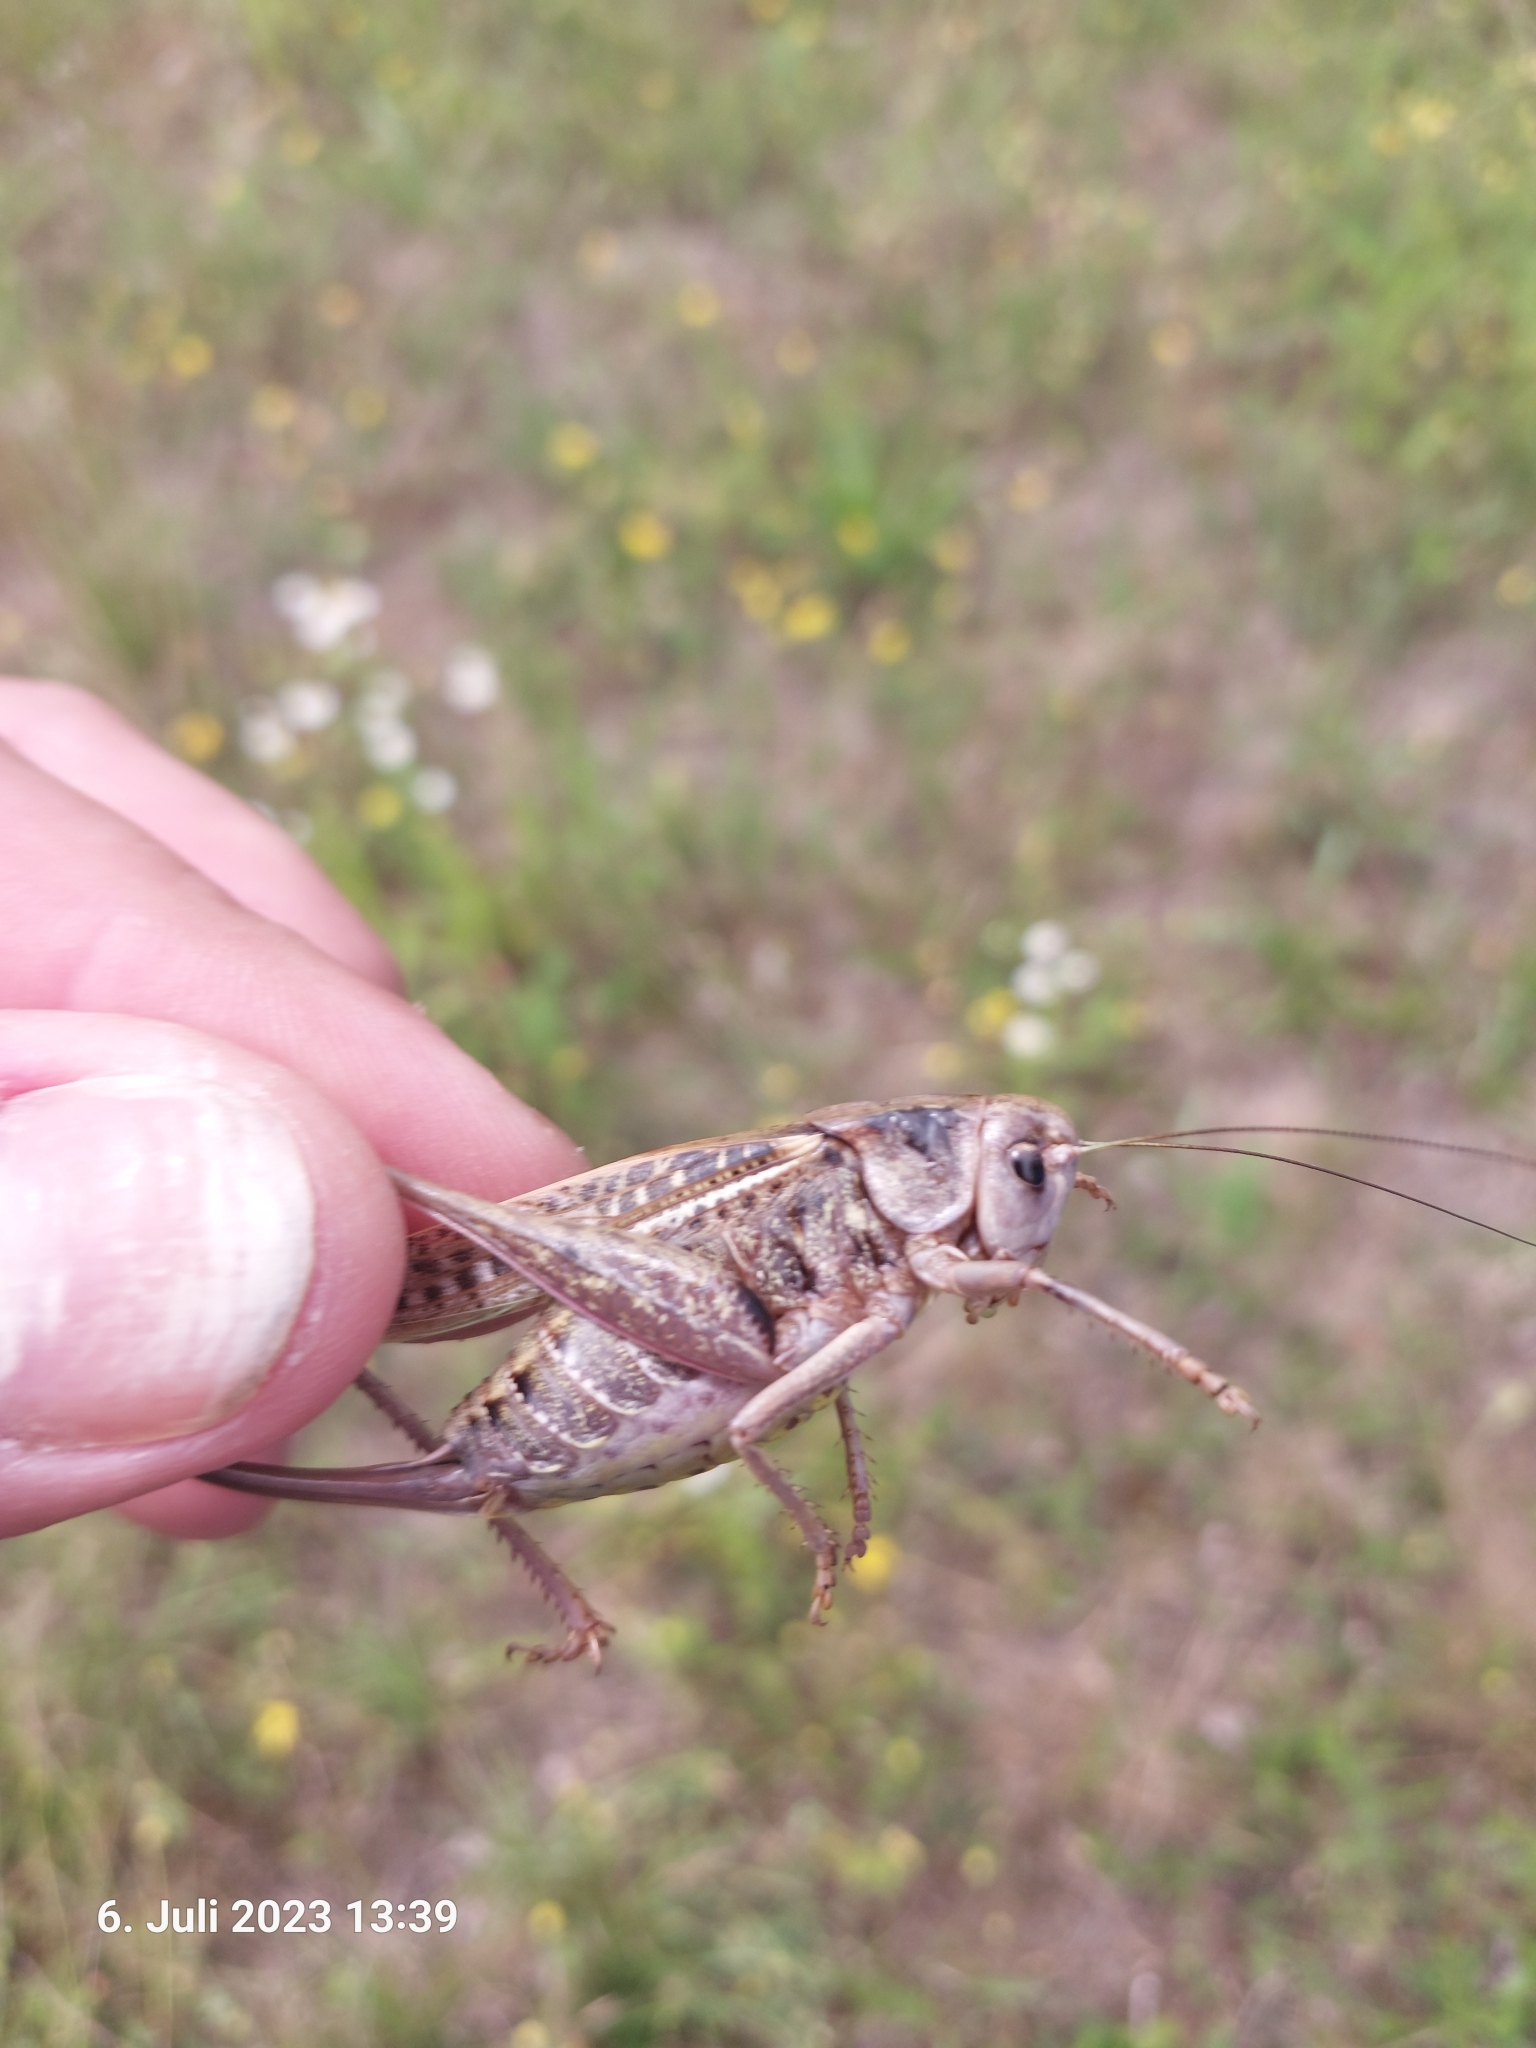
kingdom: Animalia
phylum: Arthropoda
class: Insecta
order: Orthoptera
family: Tettigoniidae
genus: Decticus
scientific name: Decticus verrucivorus
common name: Wart-biter
